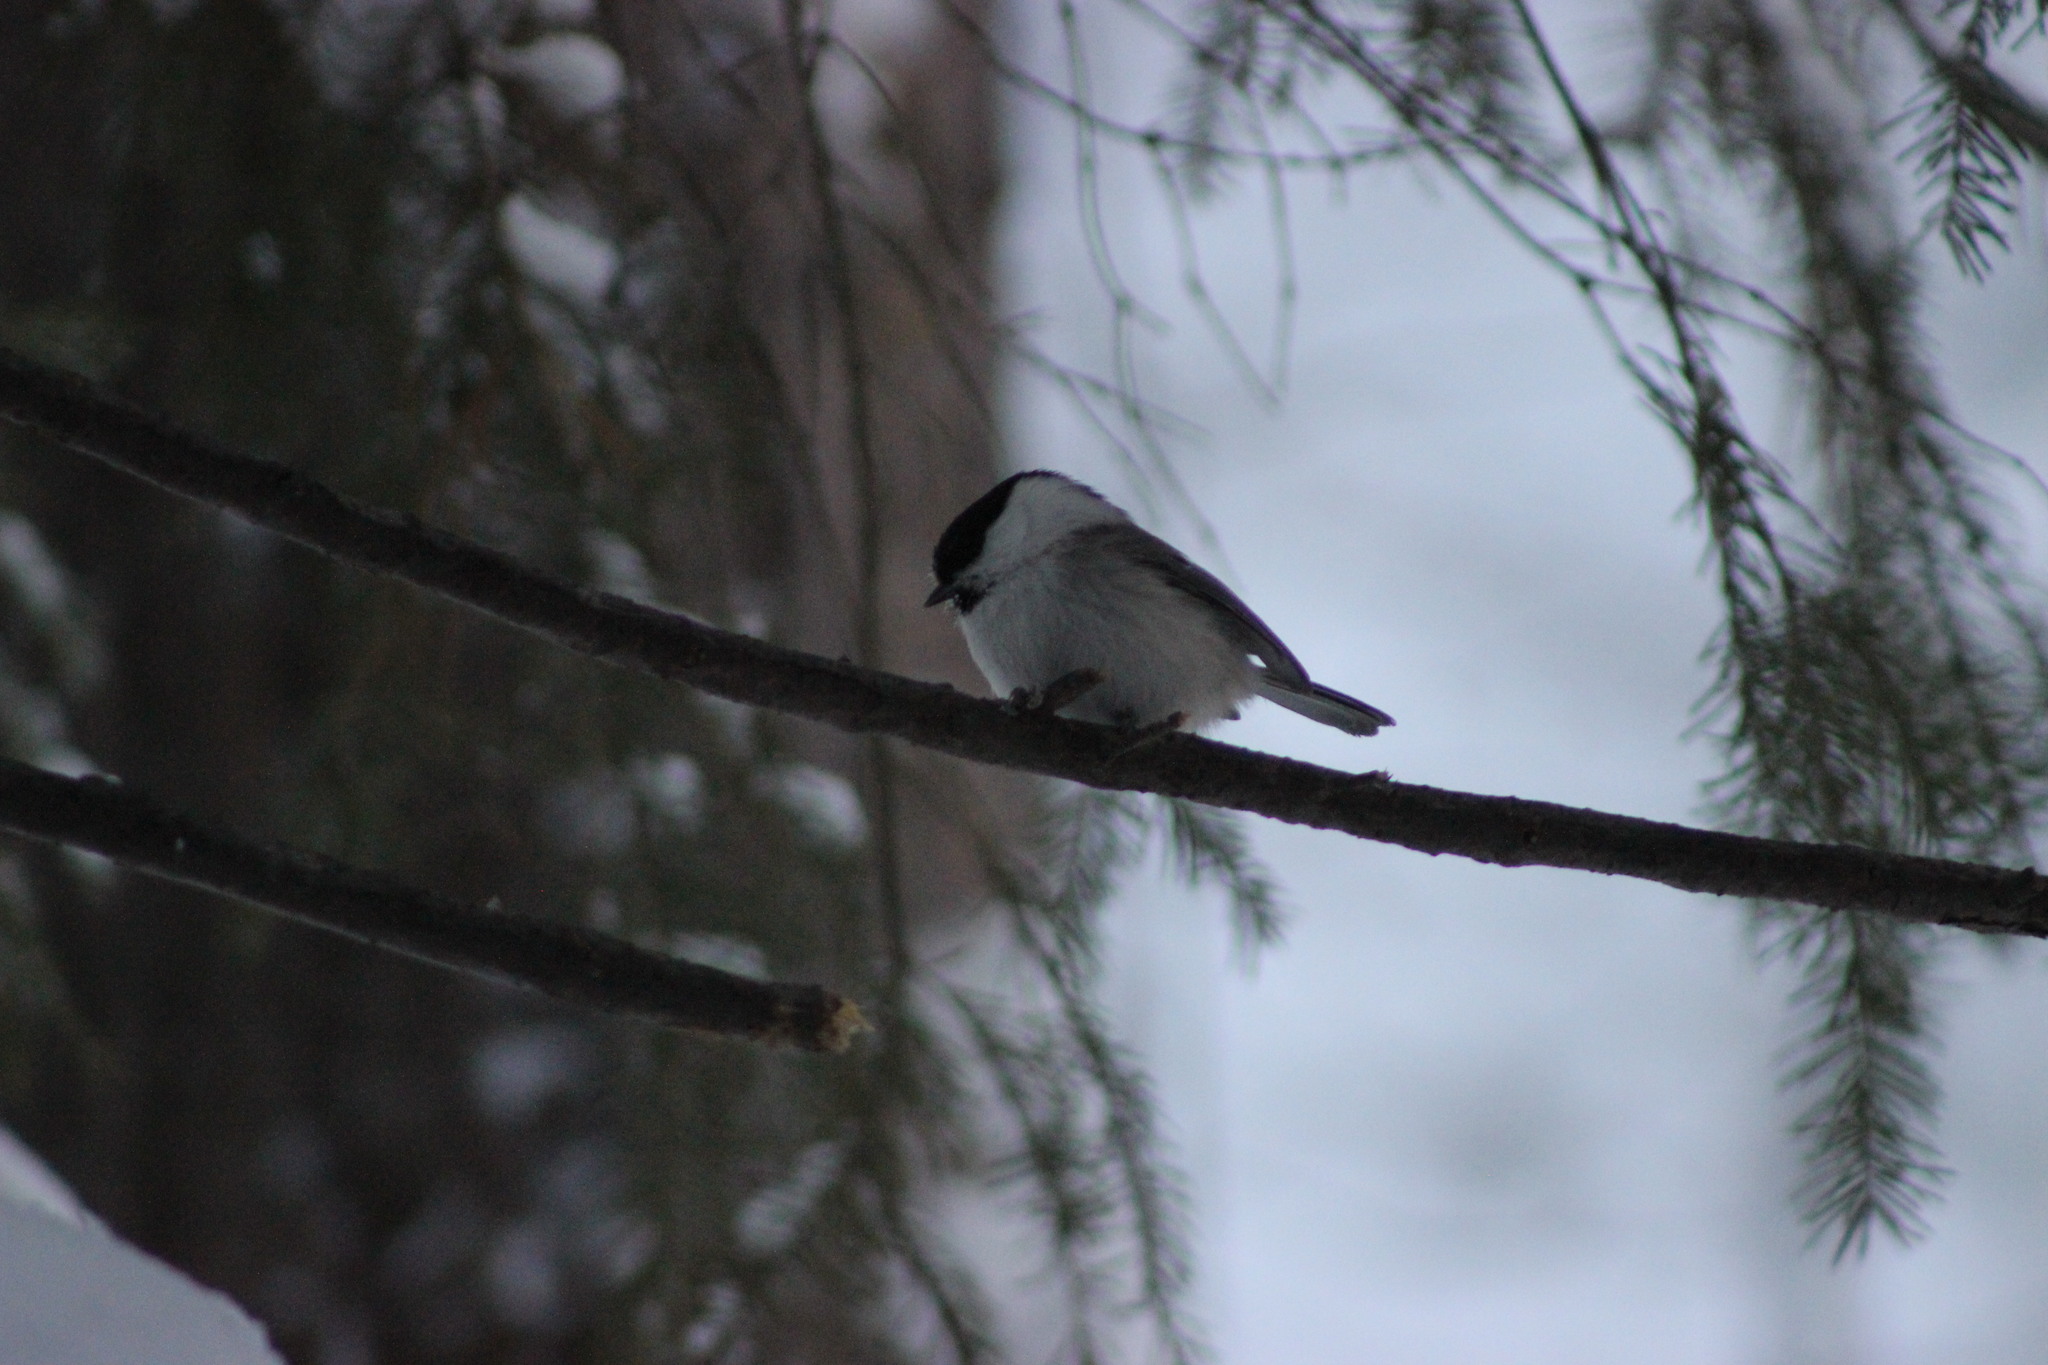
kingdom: Animalia
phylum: Chordata
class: Aves
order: Passeriformes
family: Paridae
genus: Poecile
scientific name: Poecile montanus
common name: Willow tit
